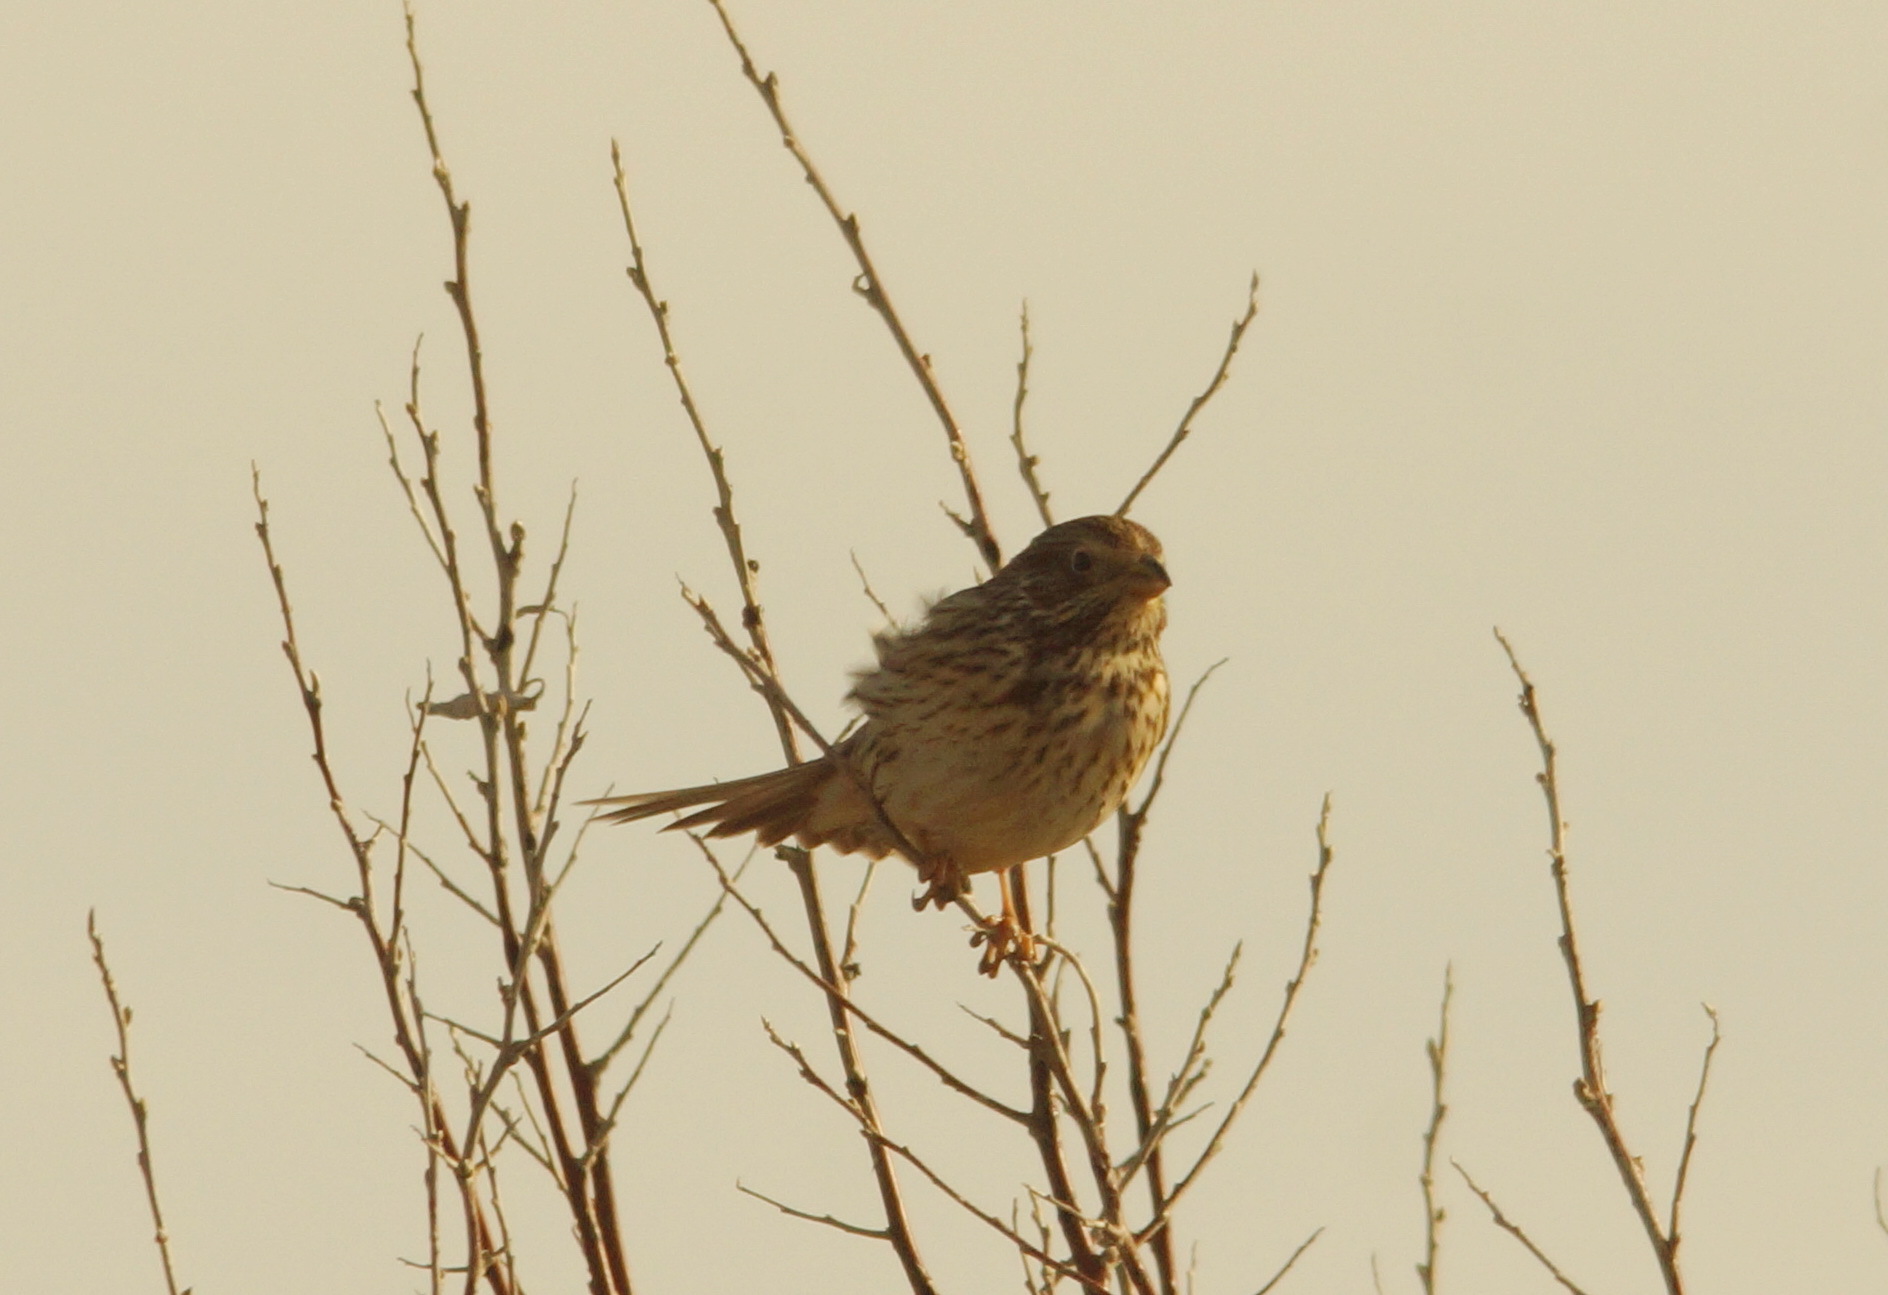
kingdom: Animalia
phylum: Chordata
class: Aves
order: Passeriformes
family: Emberizidae
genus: Emberiza
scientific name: Emberiza calandra
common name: Corn bunting
